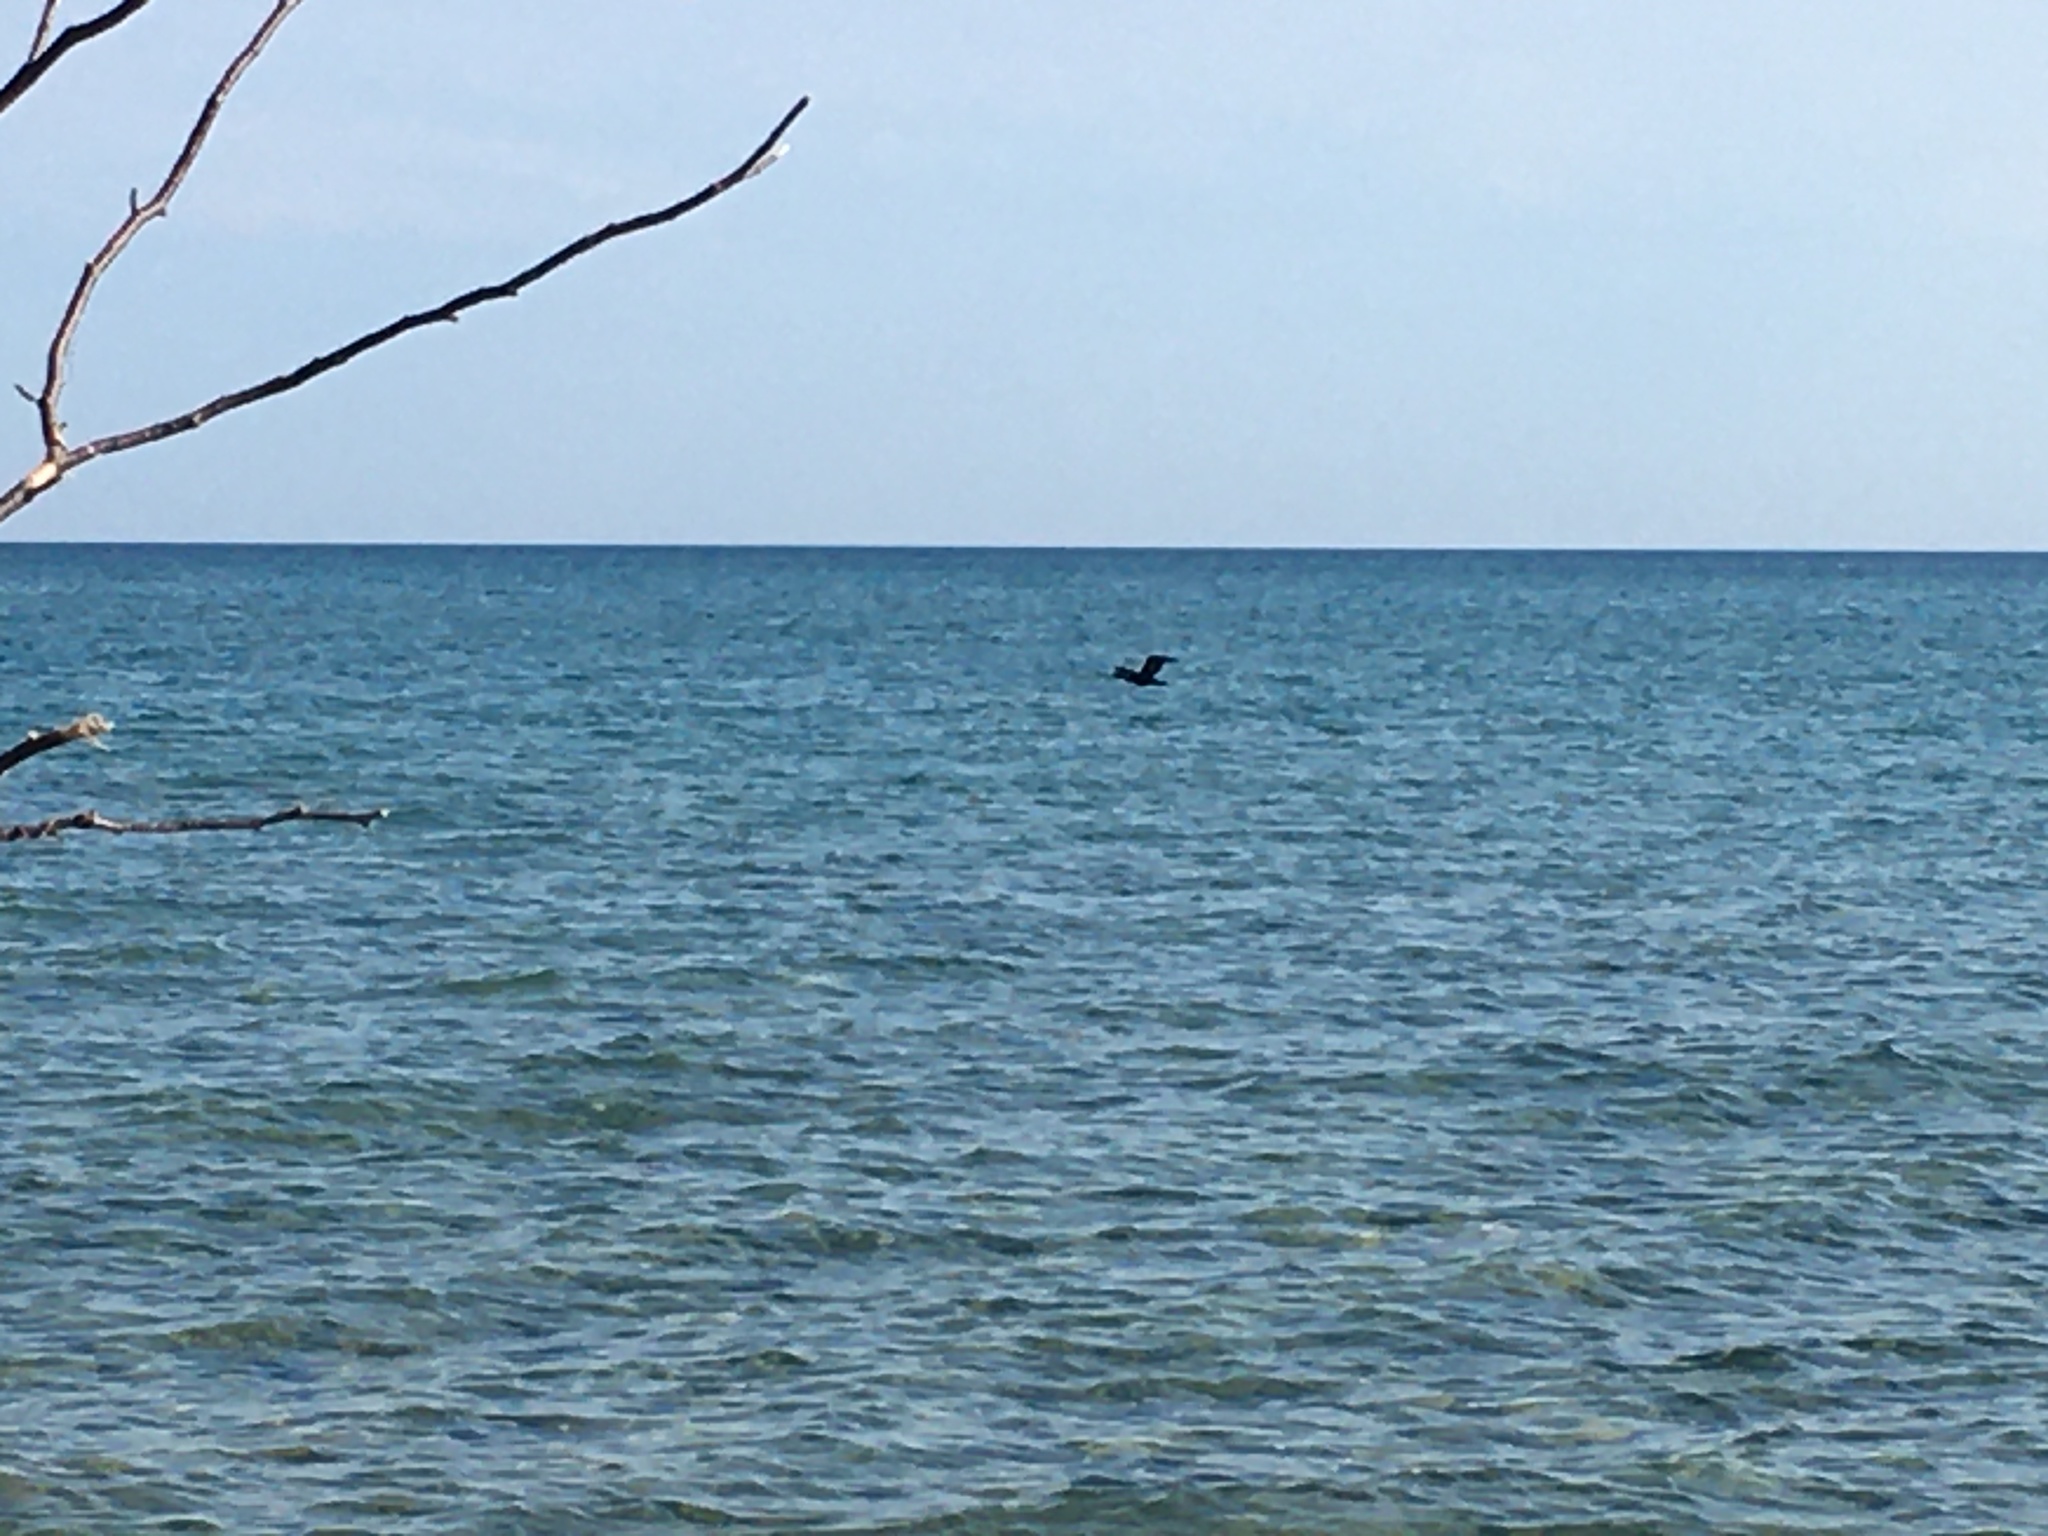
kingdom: Animalia
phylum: Chordata
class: Aves
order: Suliformes
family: Phalacrocoracidae
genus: Phalacrocorax
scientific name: Phalacrocorax auritus
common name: Double-crested cormorant
